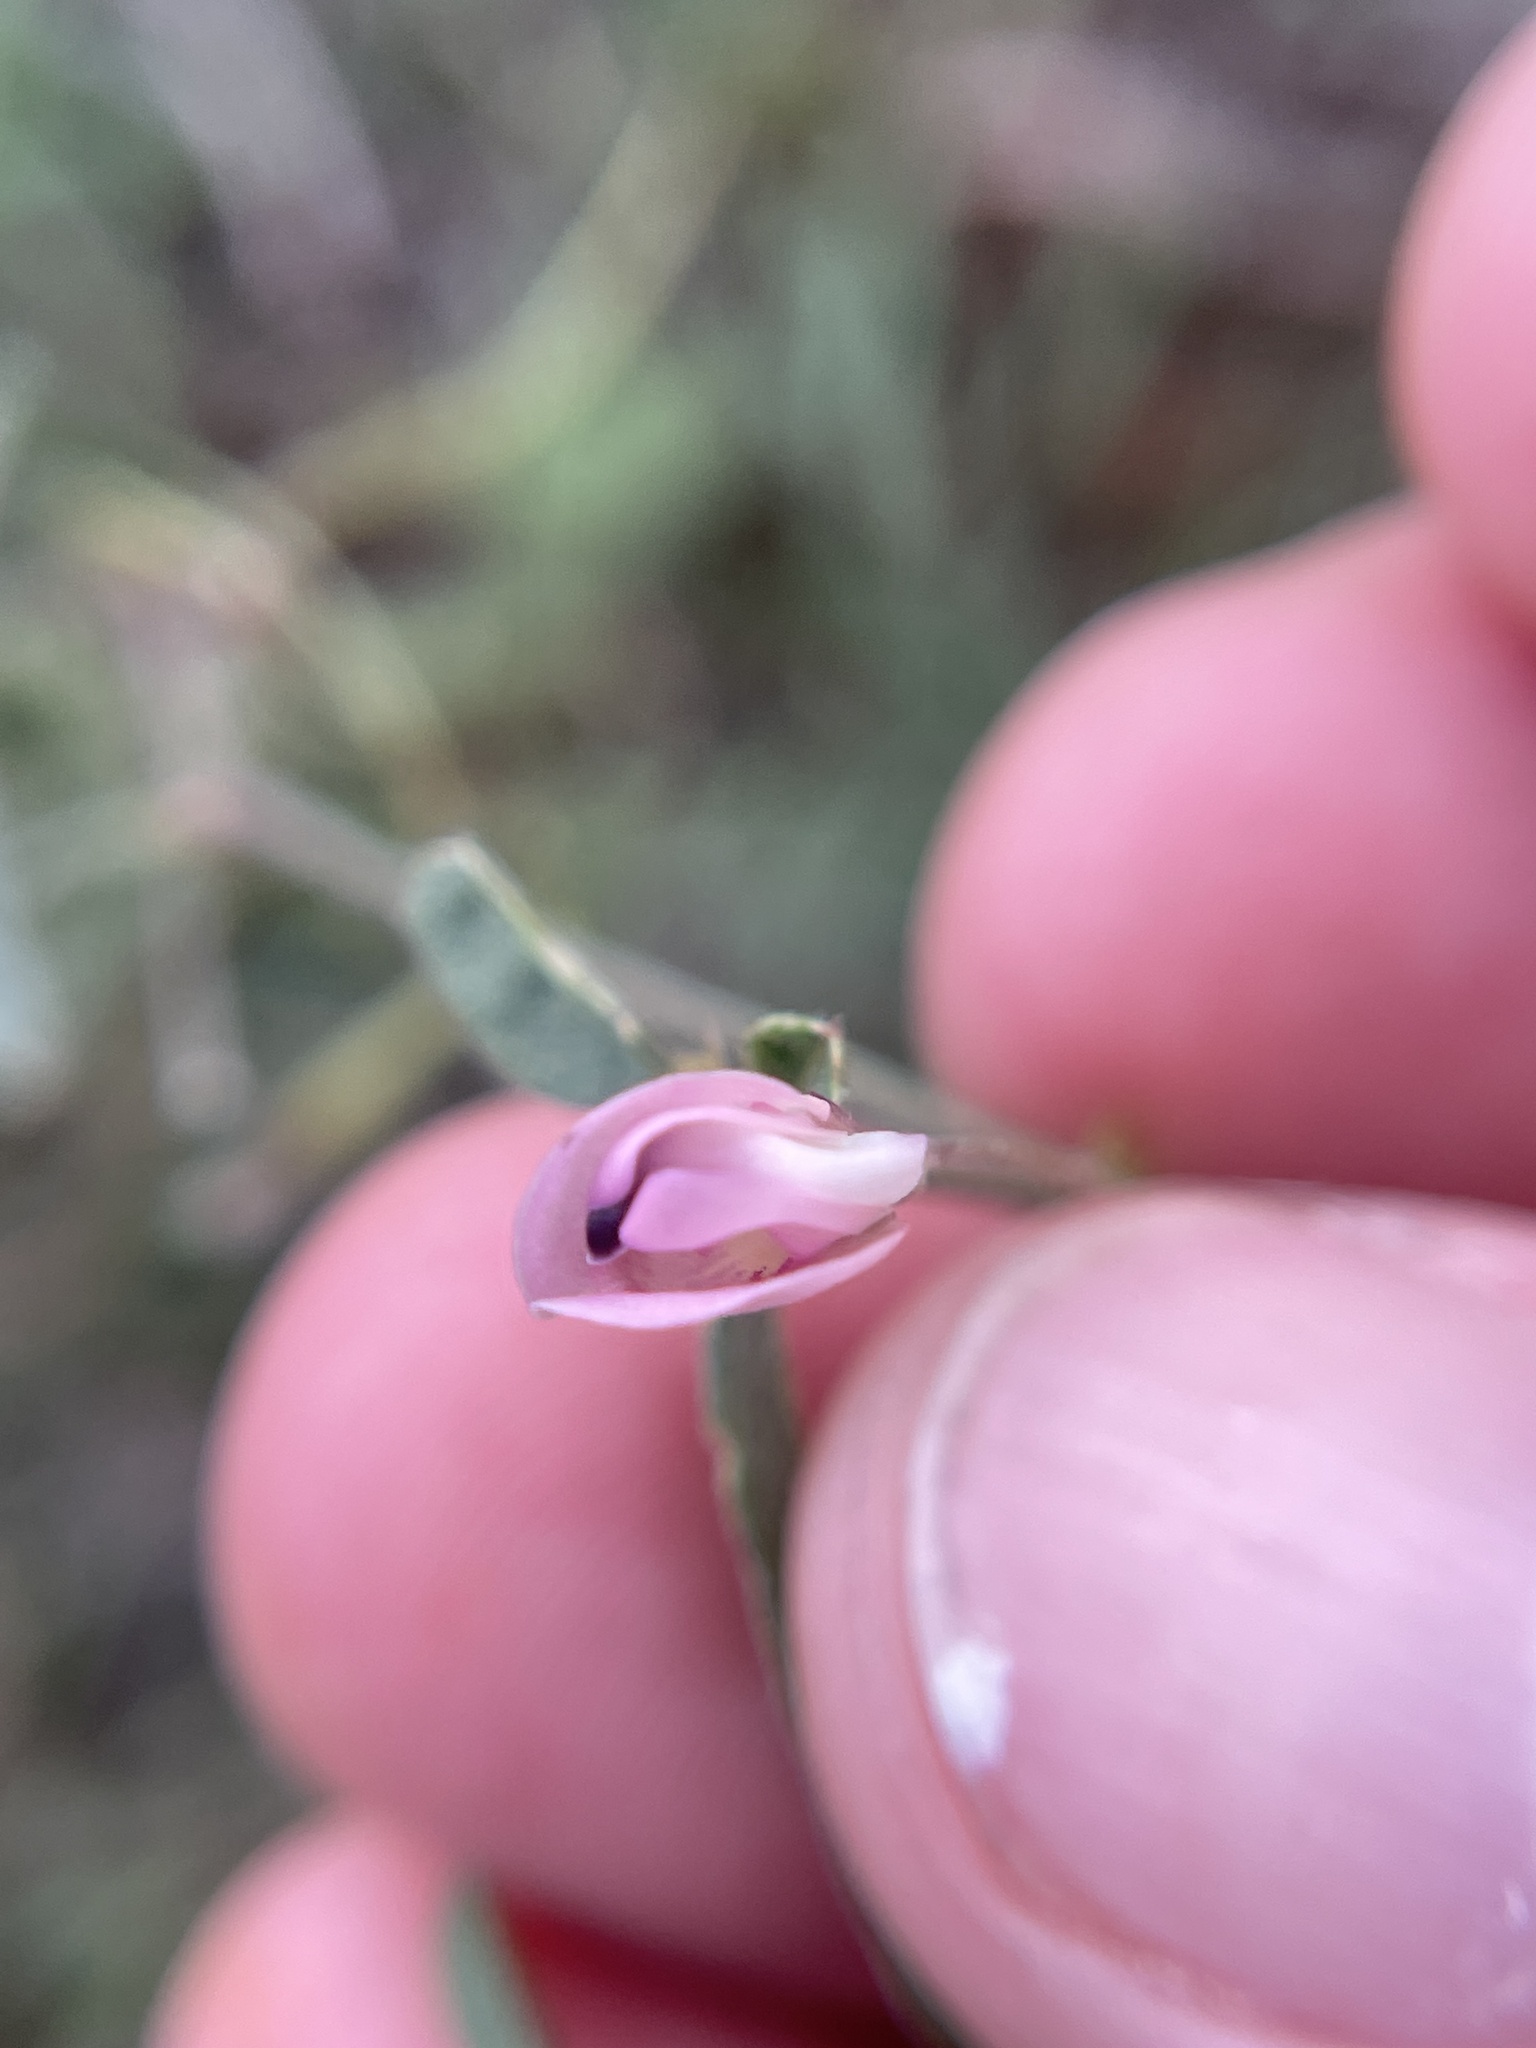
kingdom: Plantae
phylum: Tracheophyta
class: Magnoliopsida
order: Fabales
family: Fabaceae
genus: Strophostyles
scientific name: Strophostyles leiosperma
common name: Smooth-seed wild bean
